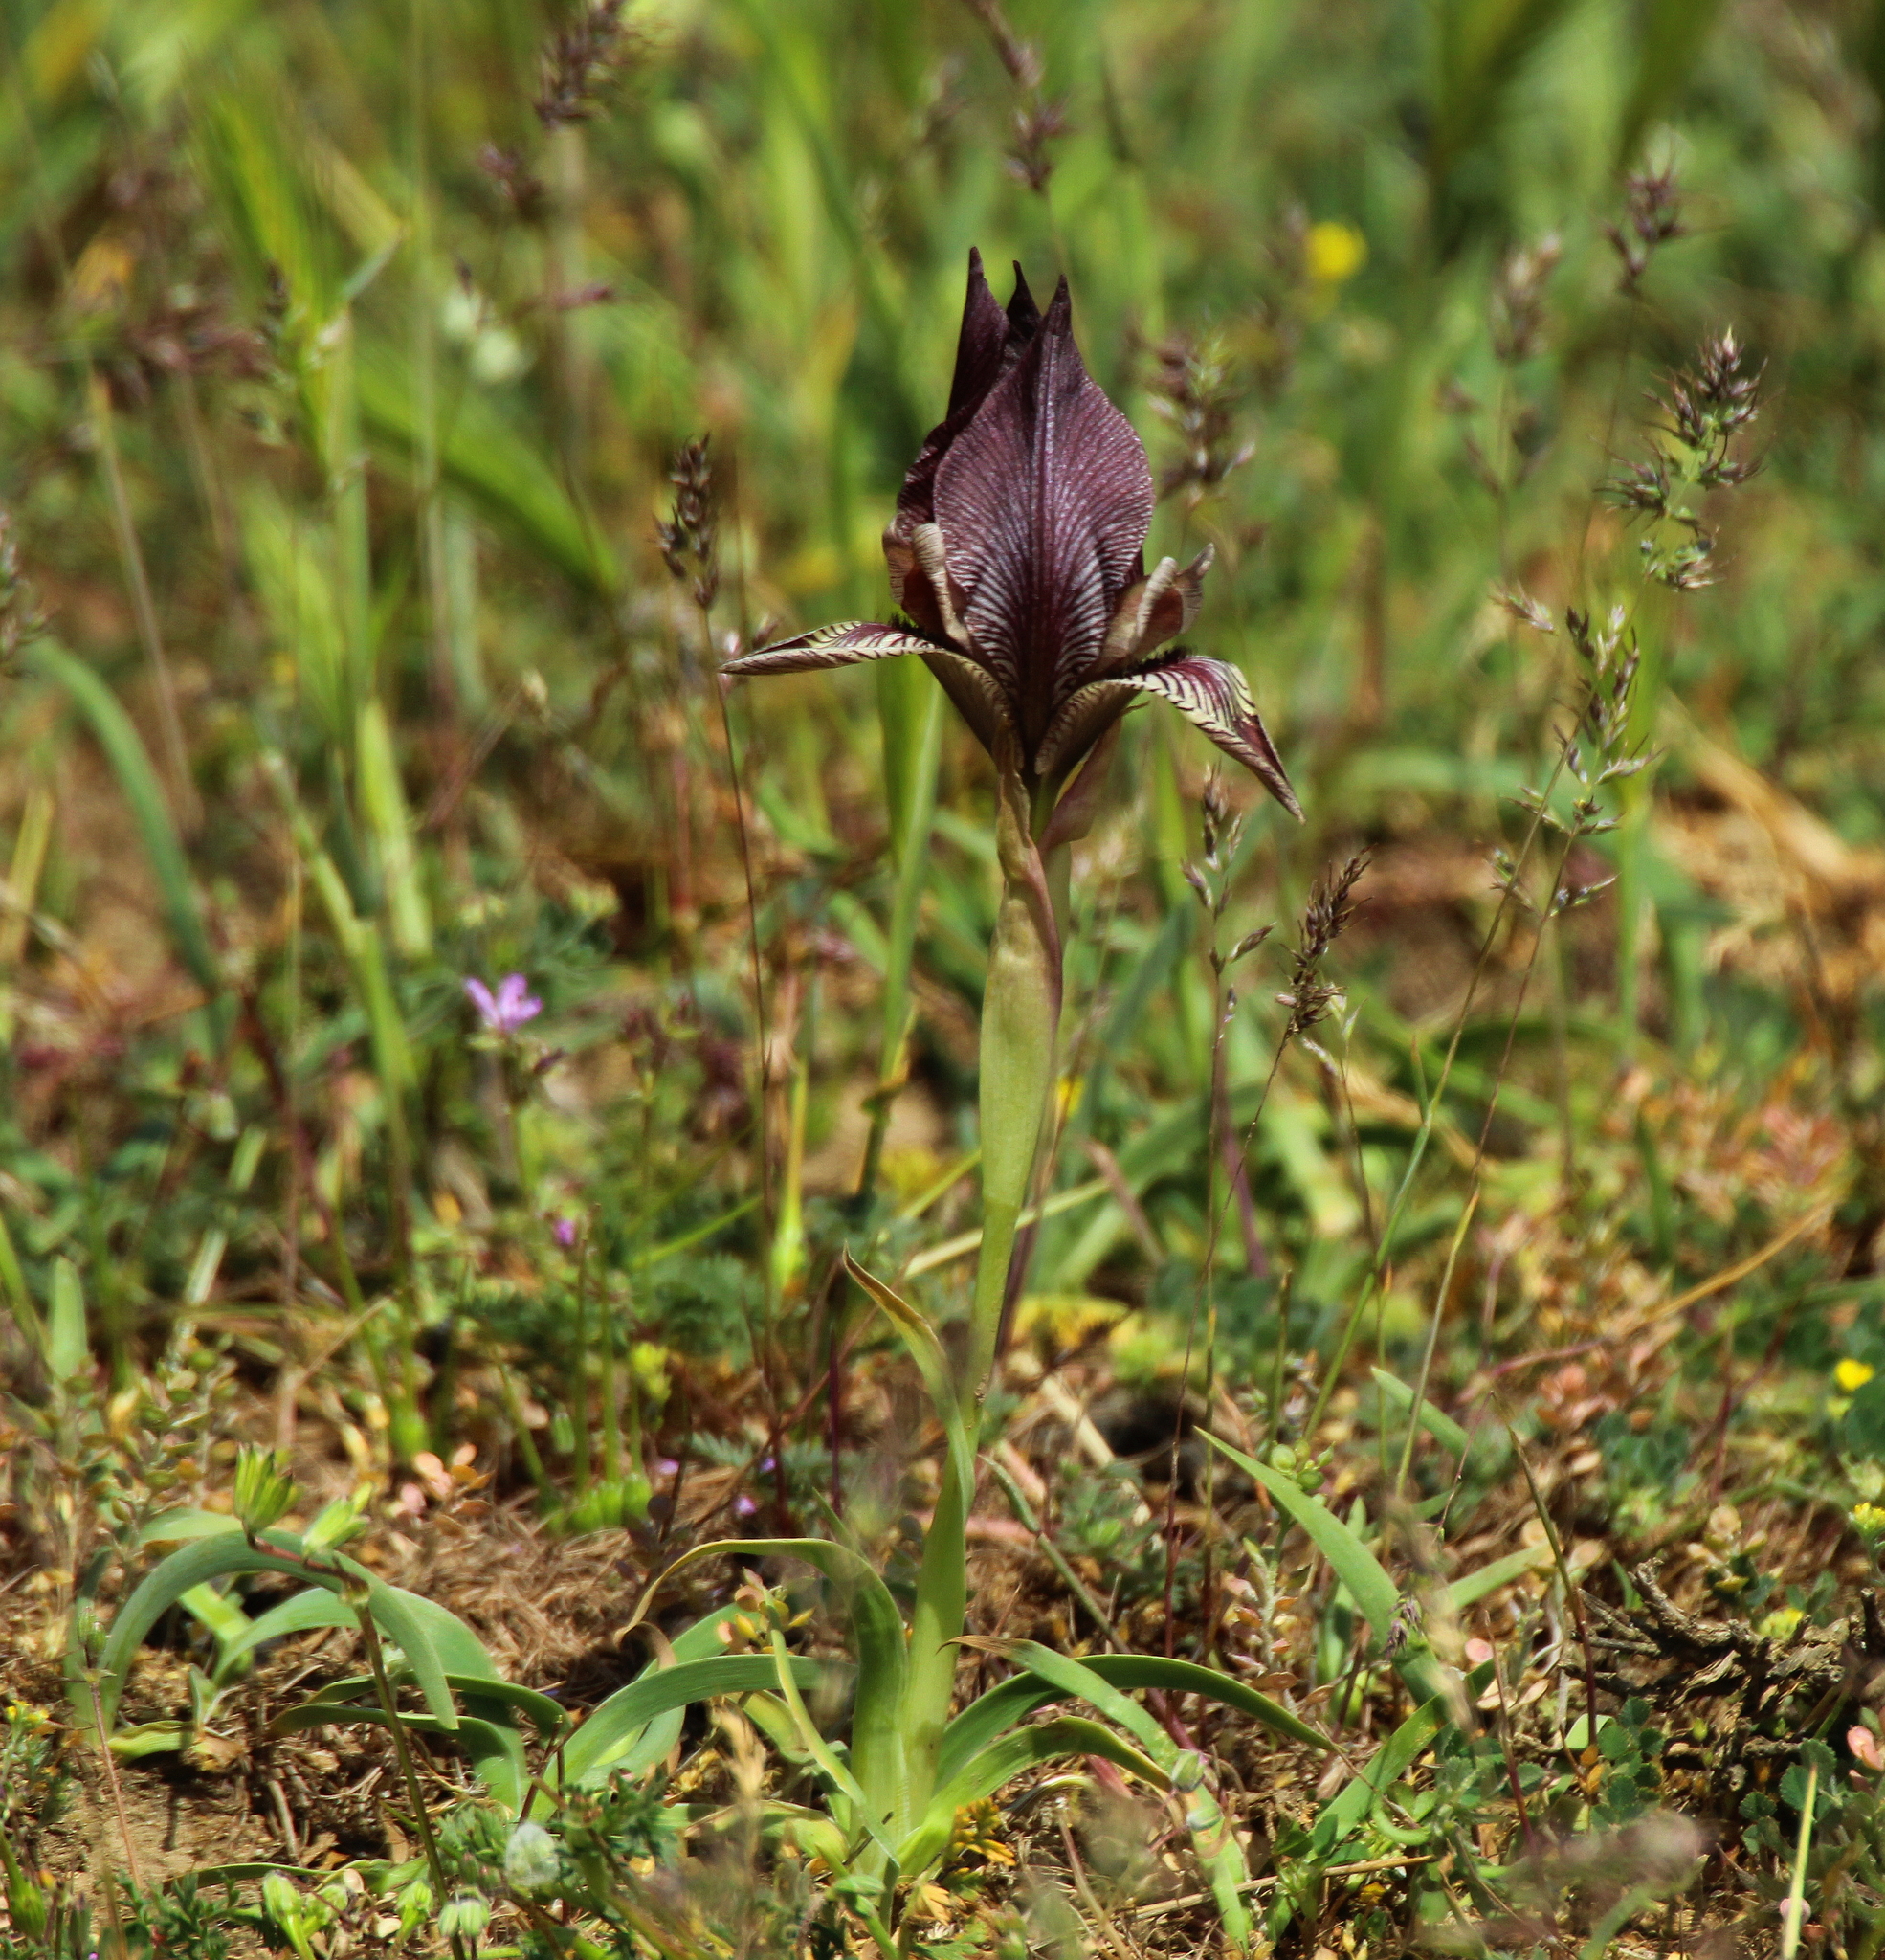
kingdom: Plantae
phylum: Tracheophyta
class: Liliopsida
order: Asparagales
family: Iridaceae
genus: Iris
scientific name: Iris acutiloba
